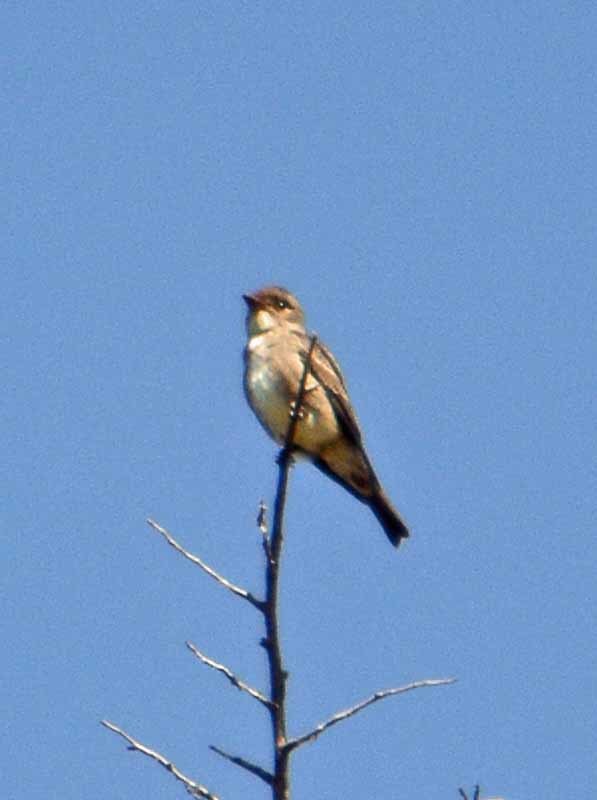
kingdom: Animalia
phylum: Chordata
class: Aves
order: Passeriformes
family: Tyrannidae
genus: Contopus
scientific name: Contopus cooperi
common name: Olive-sided flycatcher
